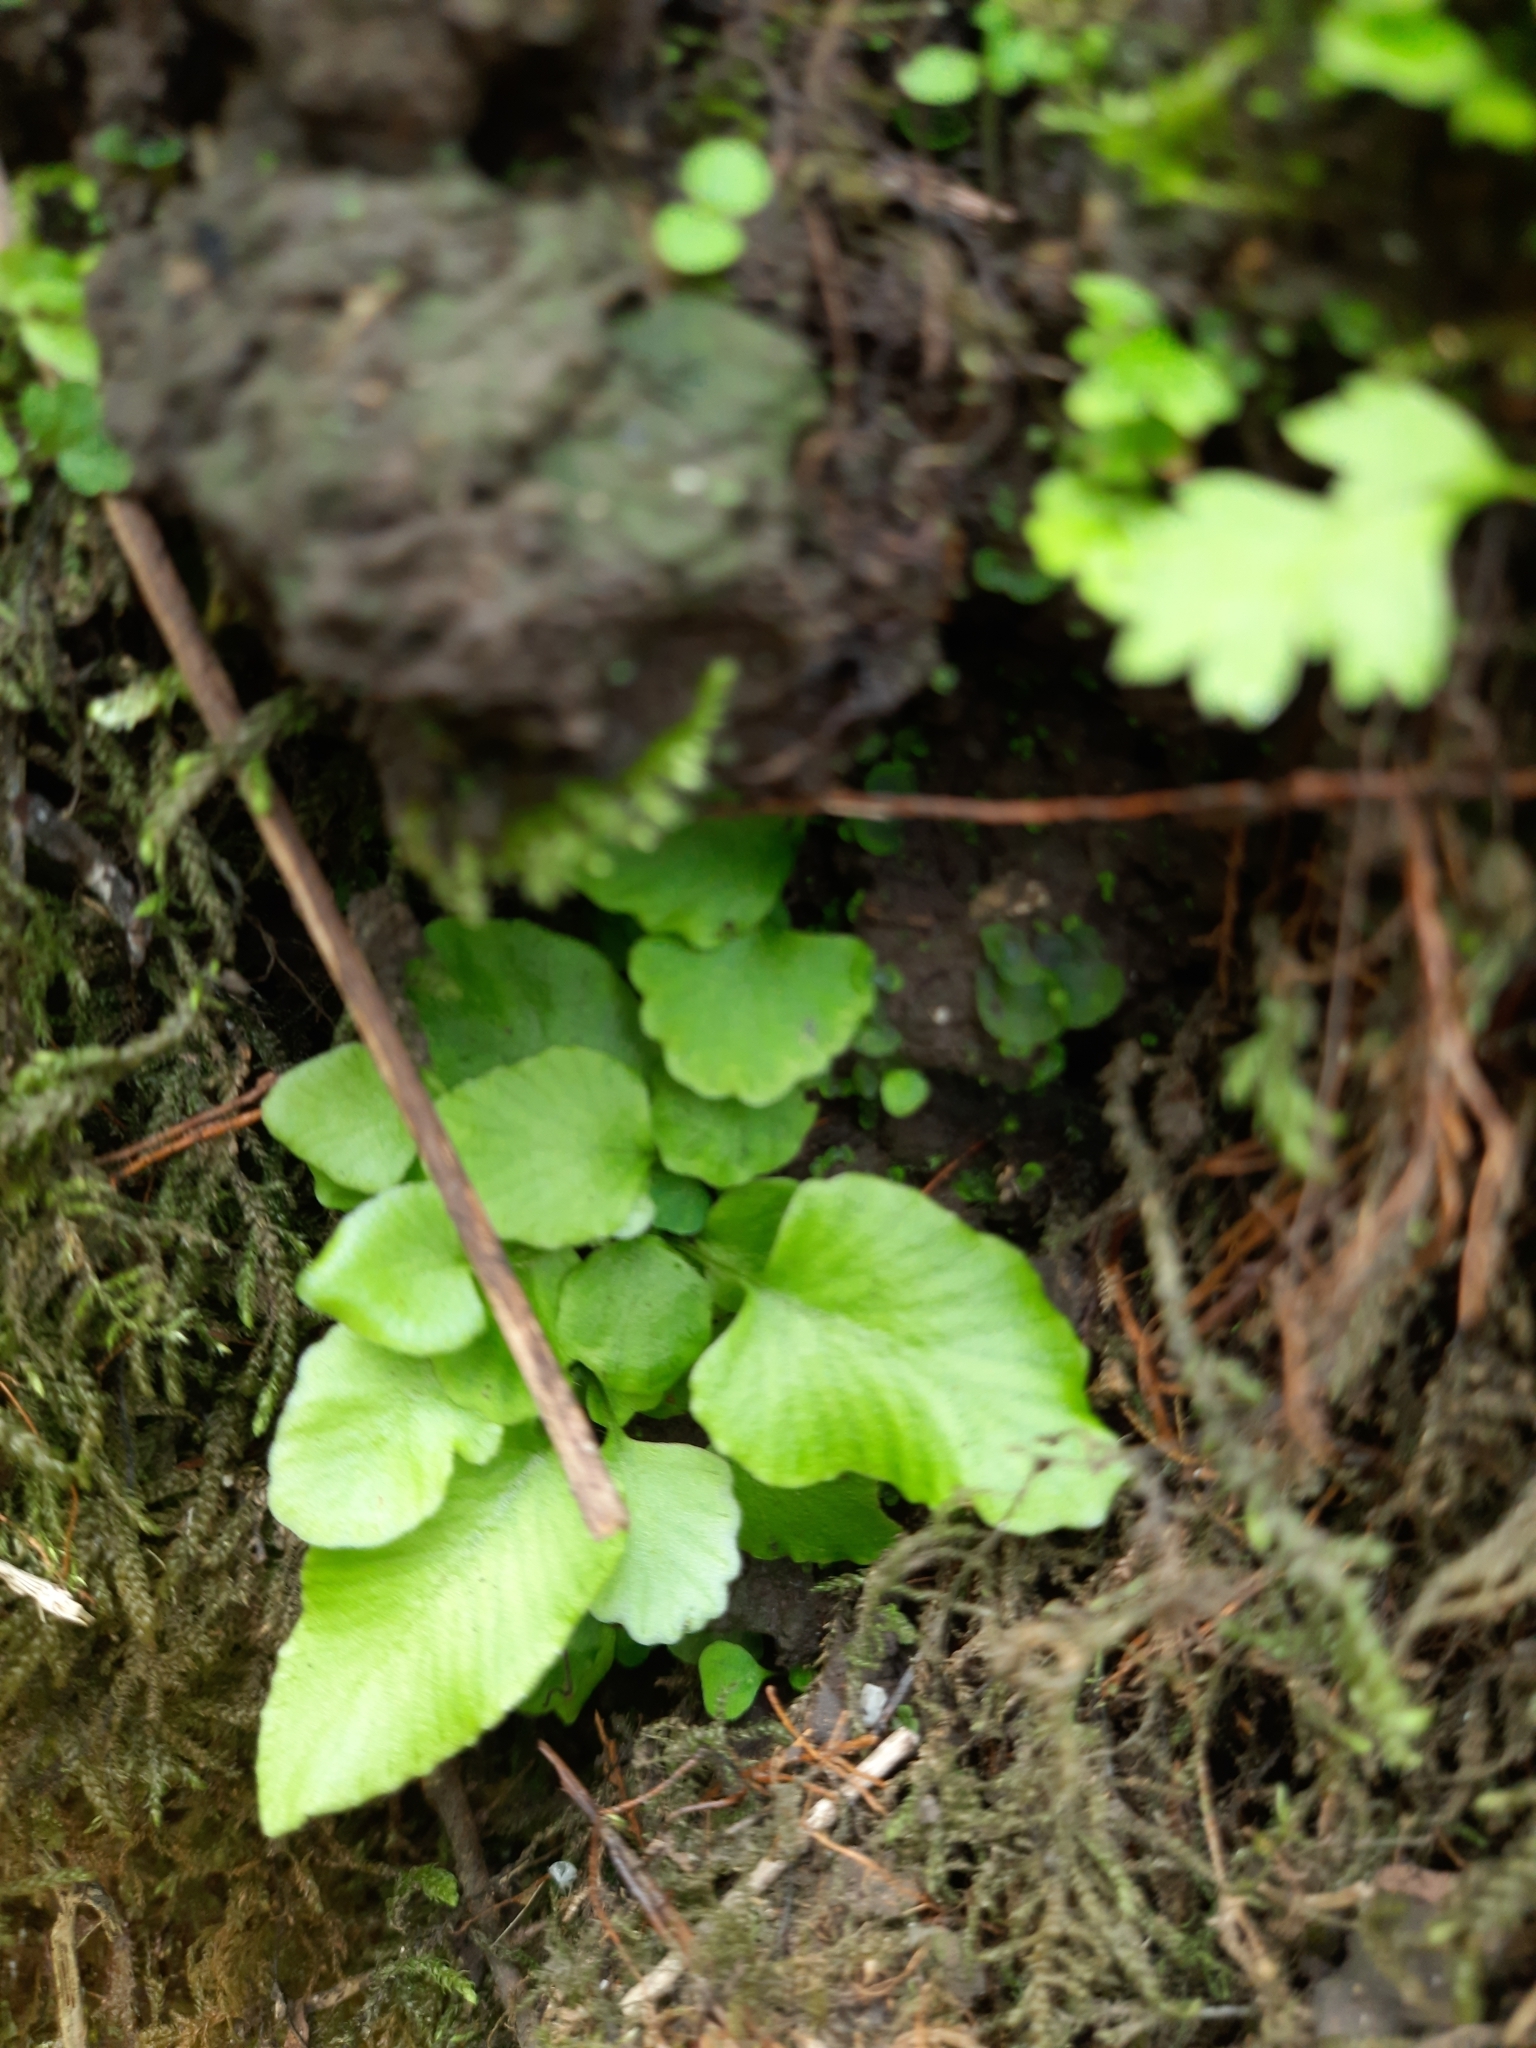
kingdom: Plantae
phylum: Tracheophyta
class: Polypodiopsida
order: Polypodiales
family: Aspleniaceae
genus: Asplenium
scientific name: Asplenium scolopendrium
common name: Hart's-tongue fern
